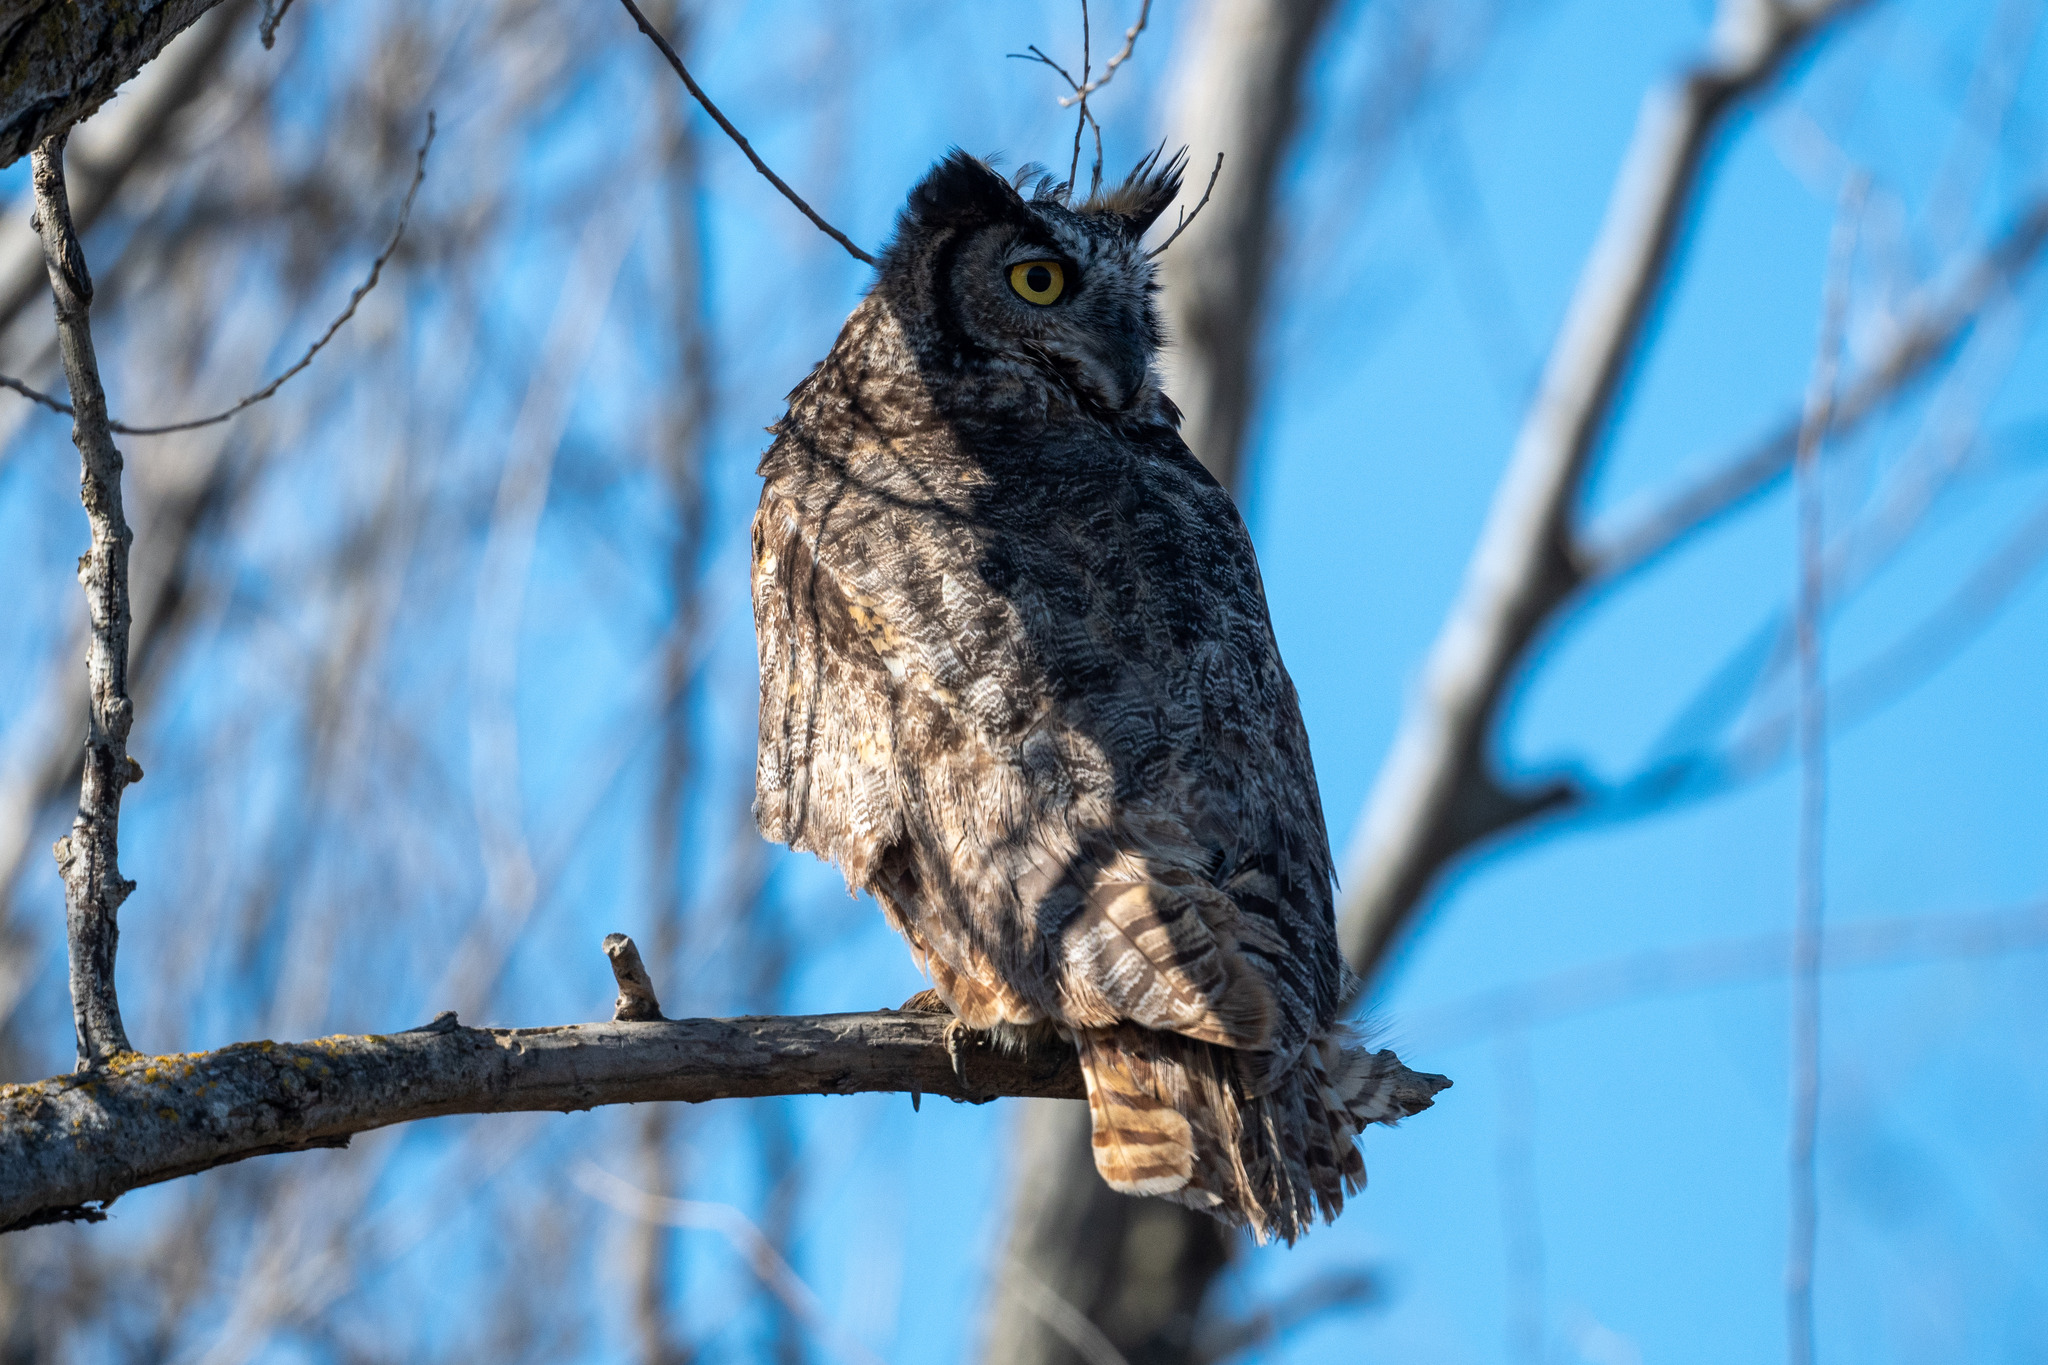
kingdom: Animalia
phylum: Chordata
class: Aves
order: Strigiformes
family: Strigidae
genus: Bubo
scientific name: Bubo virginianus
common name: Great horned owl
